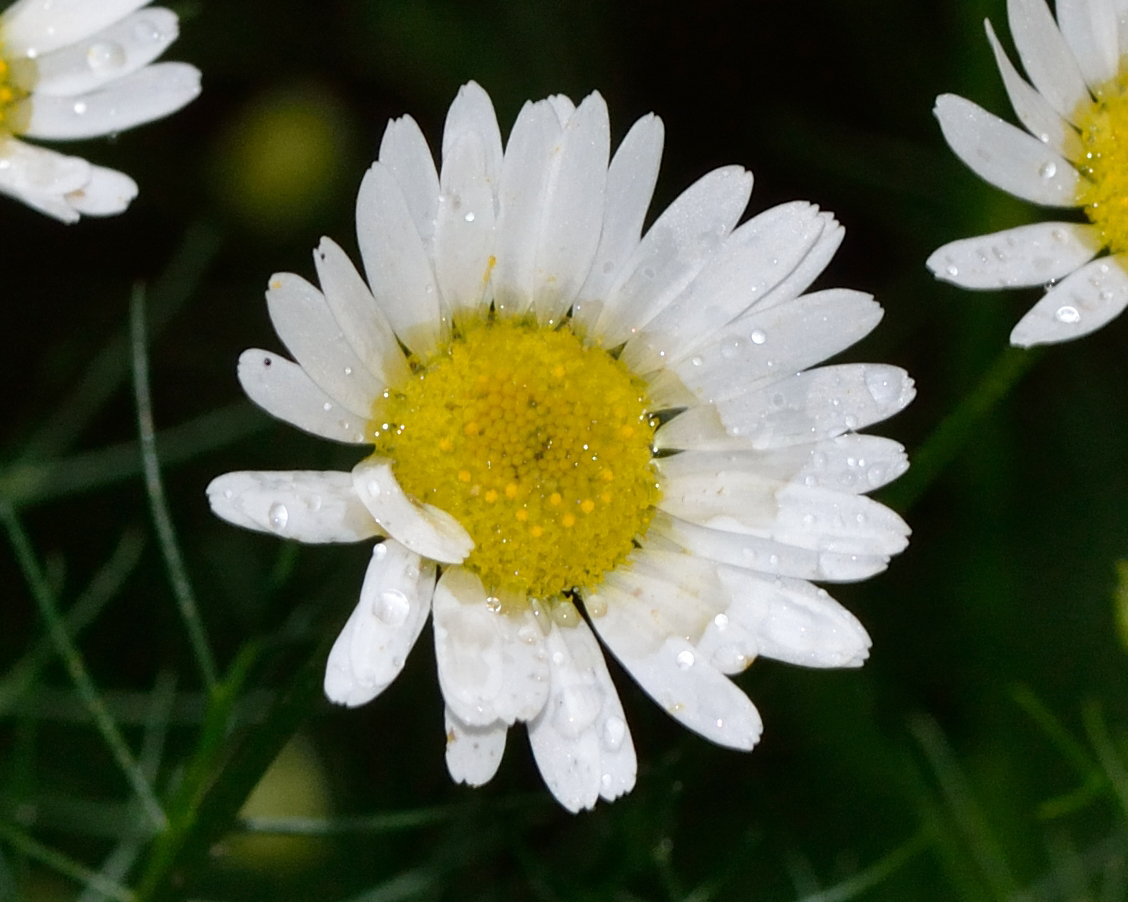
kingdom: Plantae
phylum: Tracheophyta
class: Magnoliopsida
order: Asterales
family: Asteraceae
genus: Tripleurospermum
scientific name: Tripleurospermum inodorum
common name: Scentless mayweed
